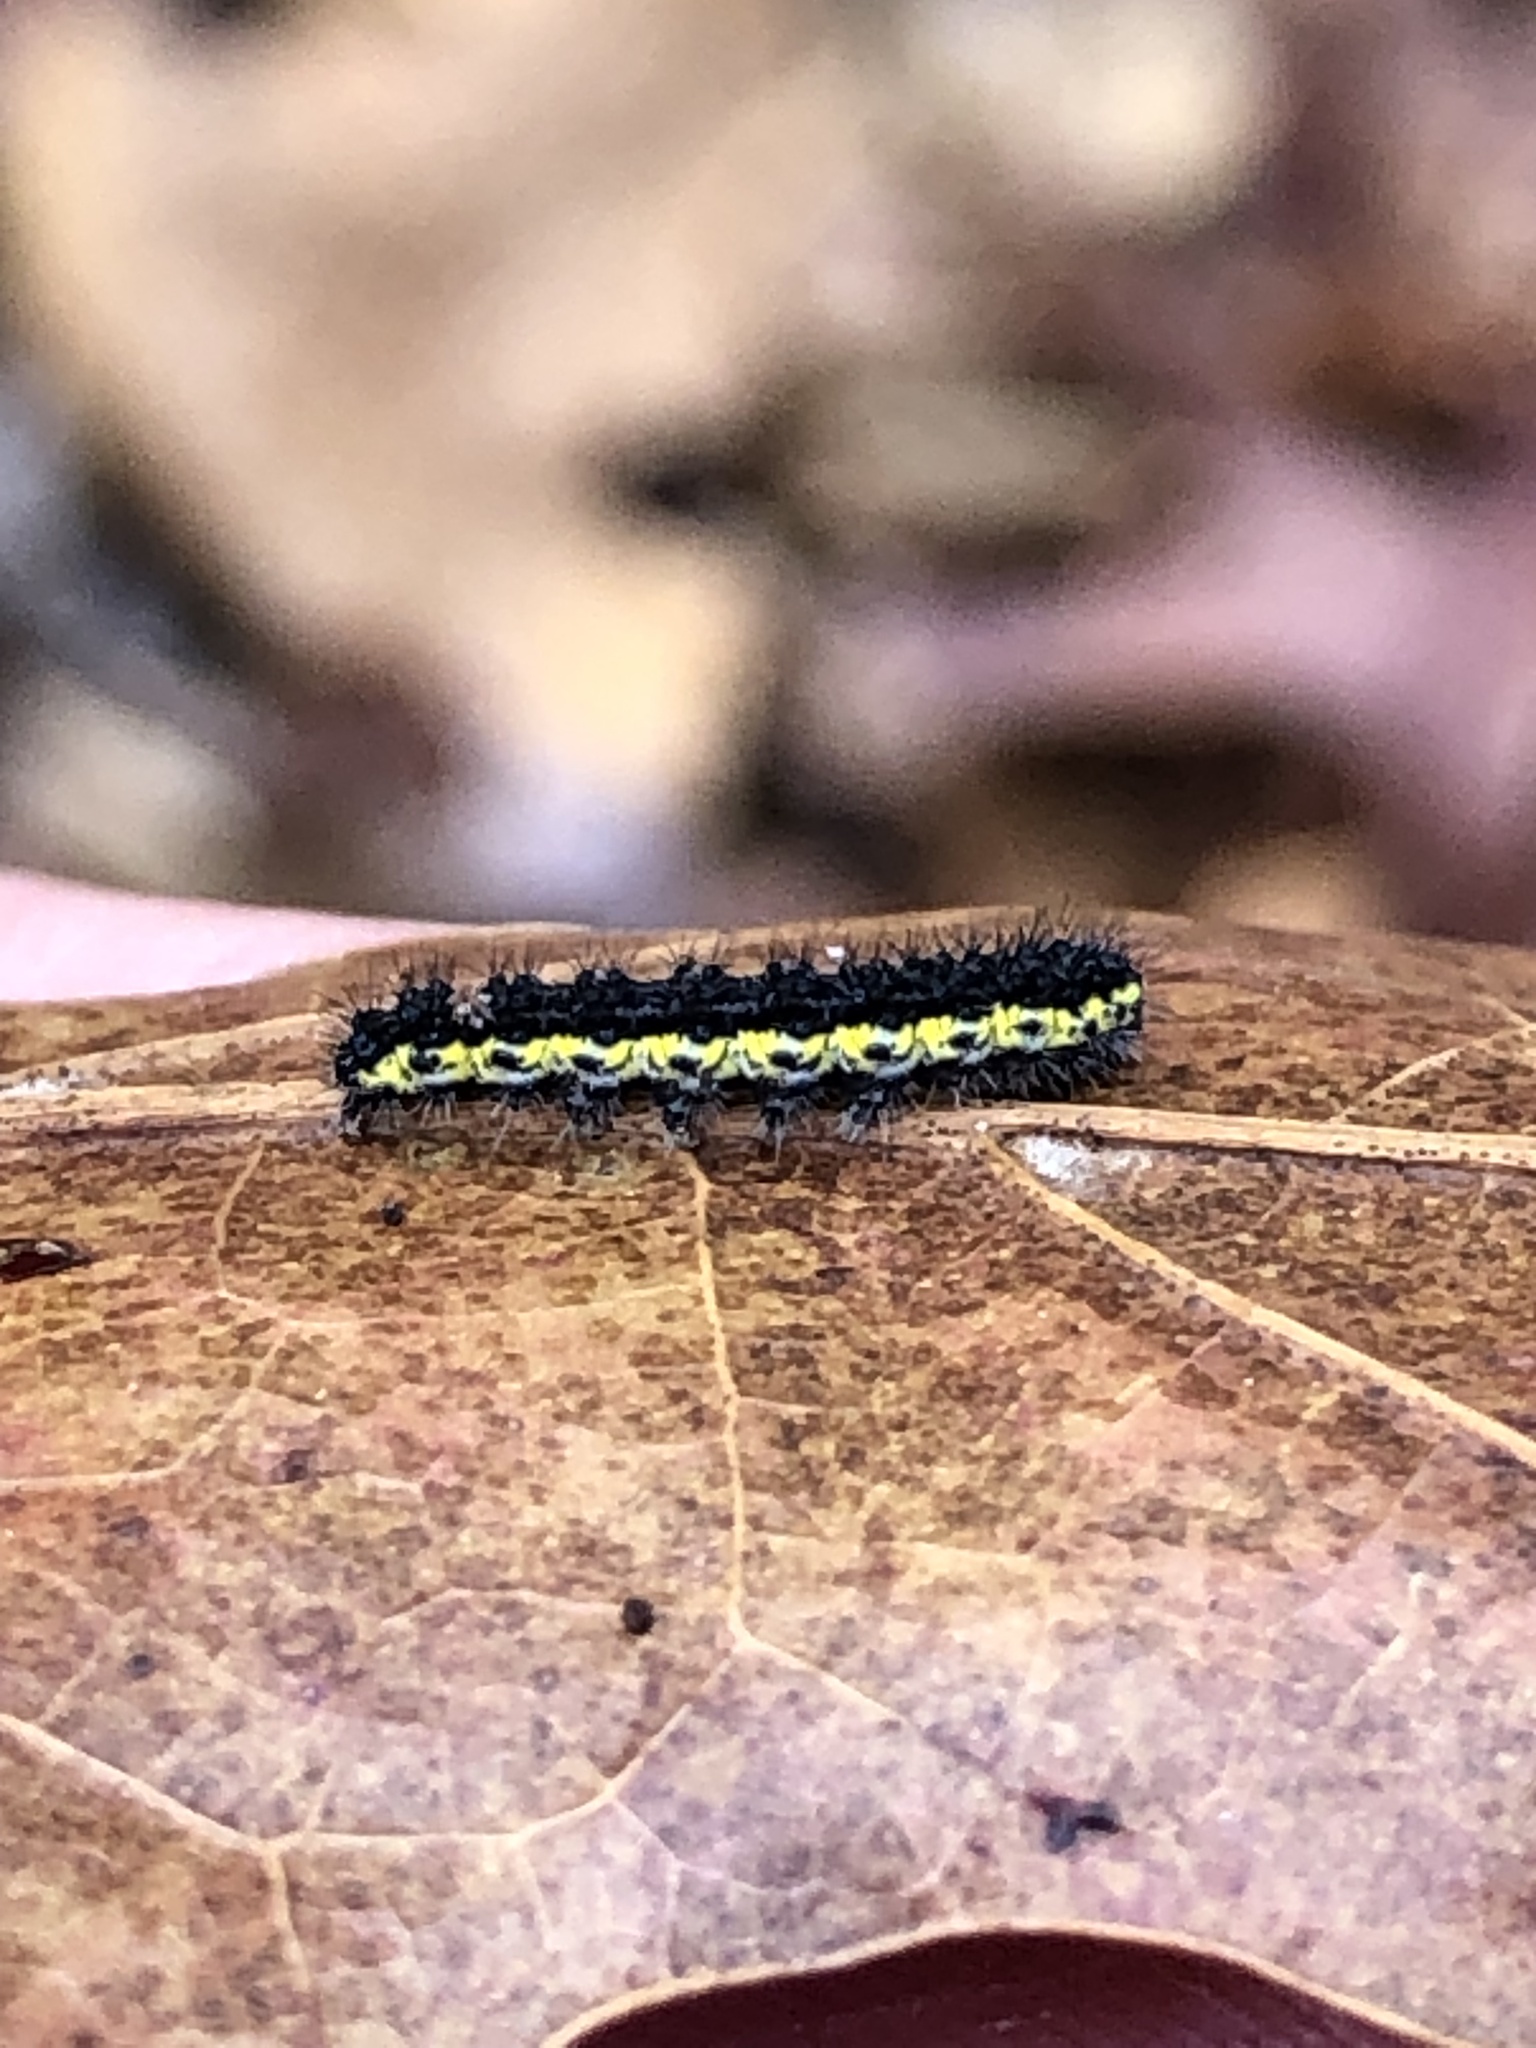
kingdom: Animalia
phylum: Arthropoda
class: Insecta
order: Lepidoptera
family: Erebidae
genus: Haploa
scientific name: Haploa contigua
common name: Neighbor moth
